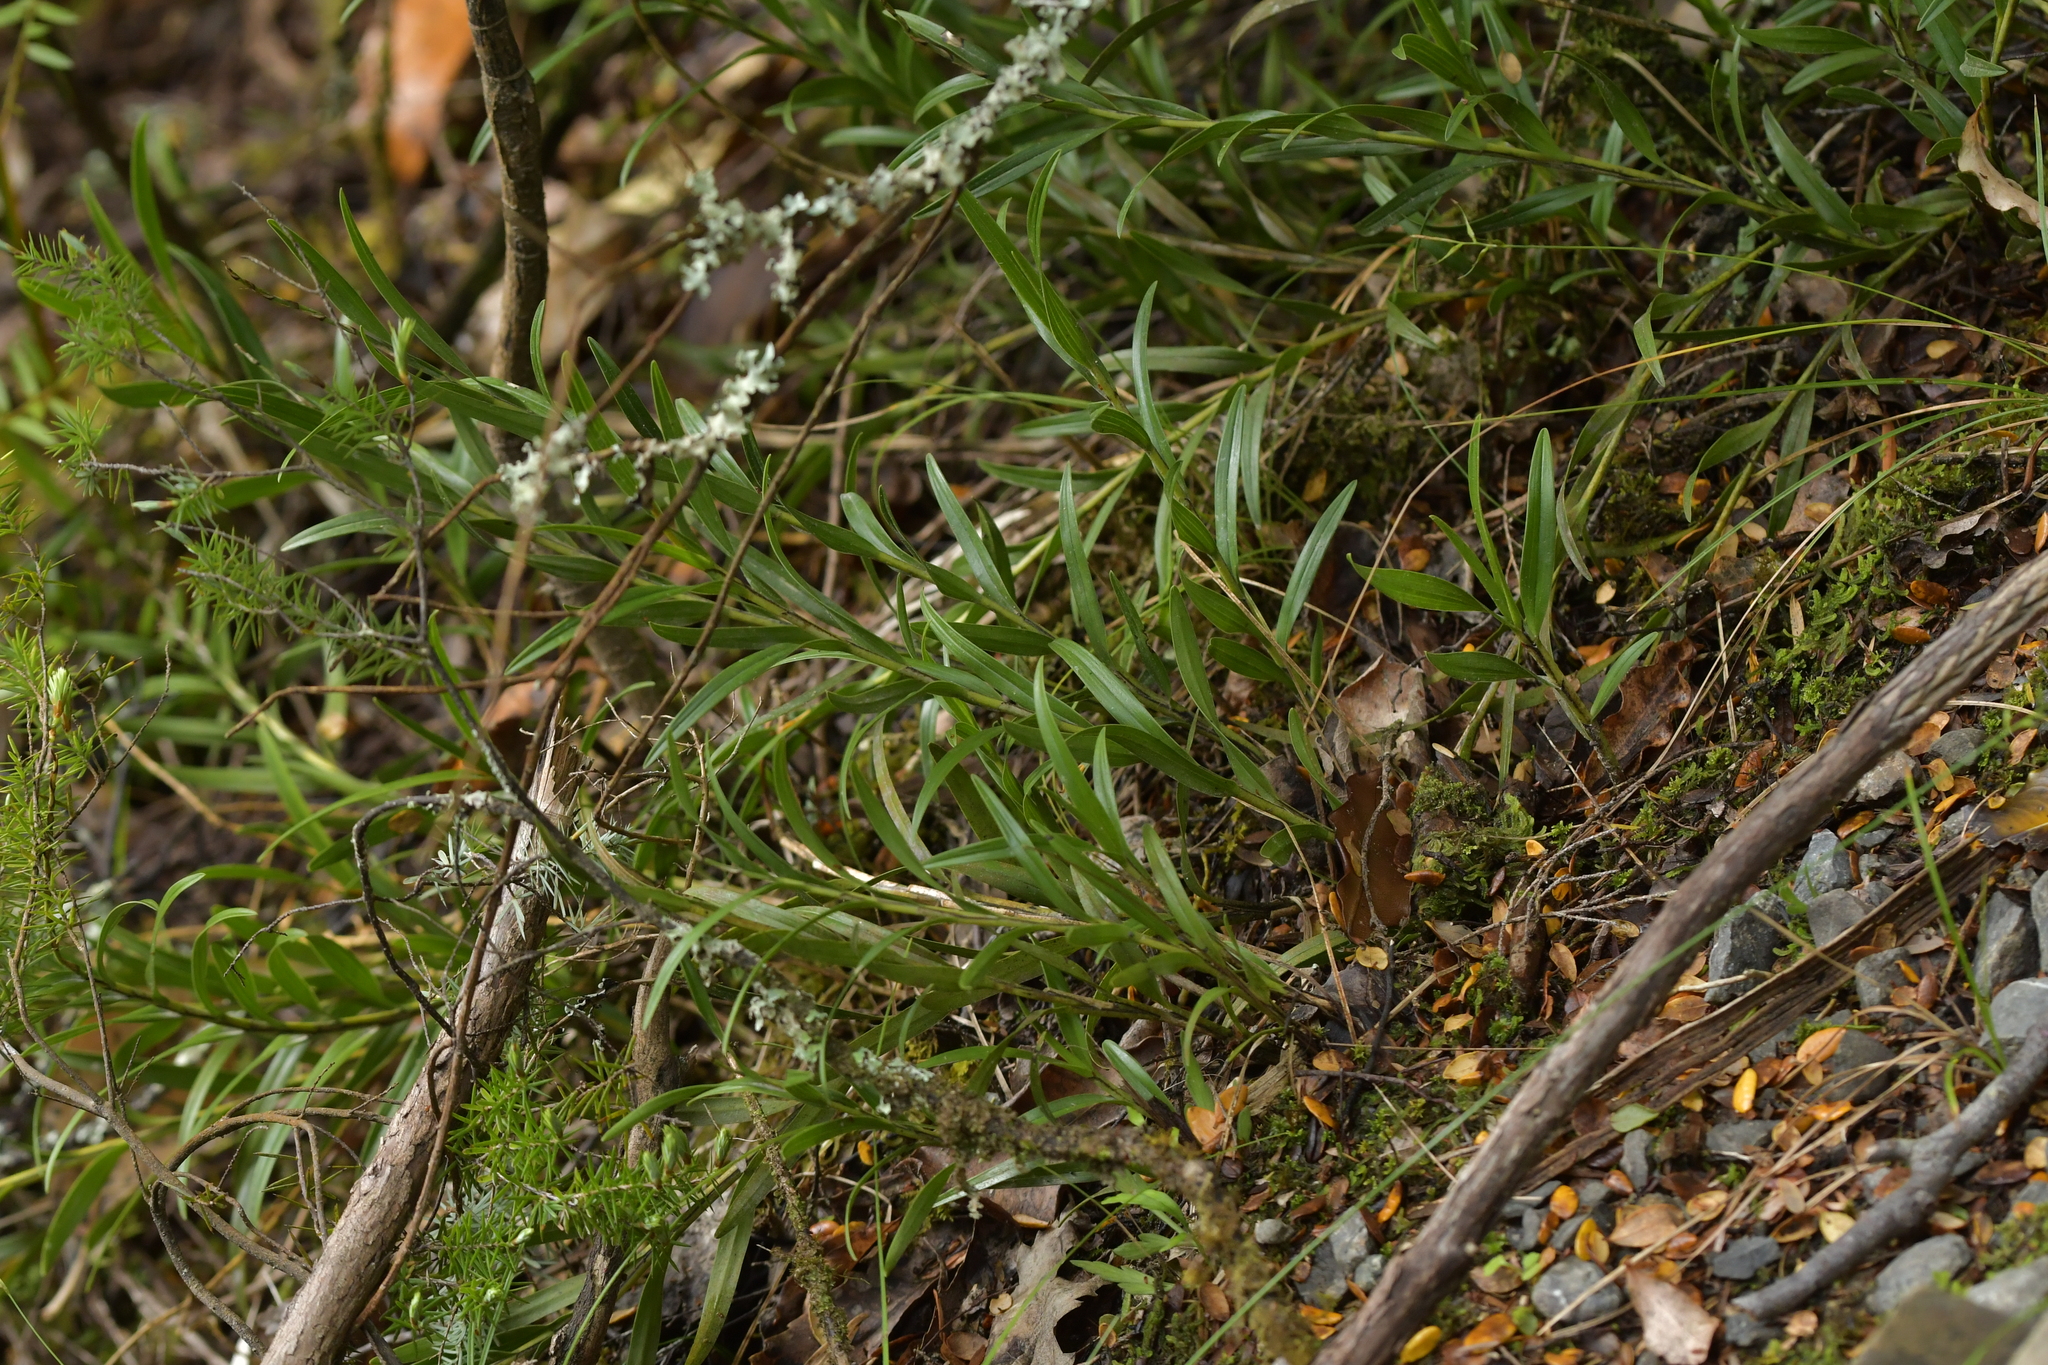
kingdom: Plantae
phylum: Tracheophyta
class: Liliopsida
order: Asparagales
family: Orchidaceae
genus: Earina
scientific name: Earina autumnalis
